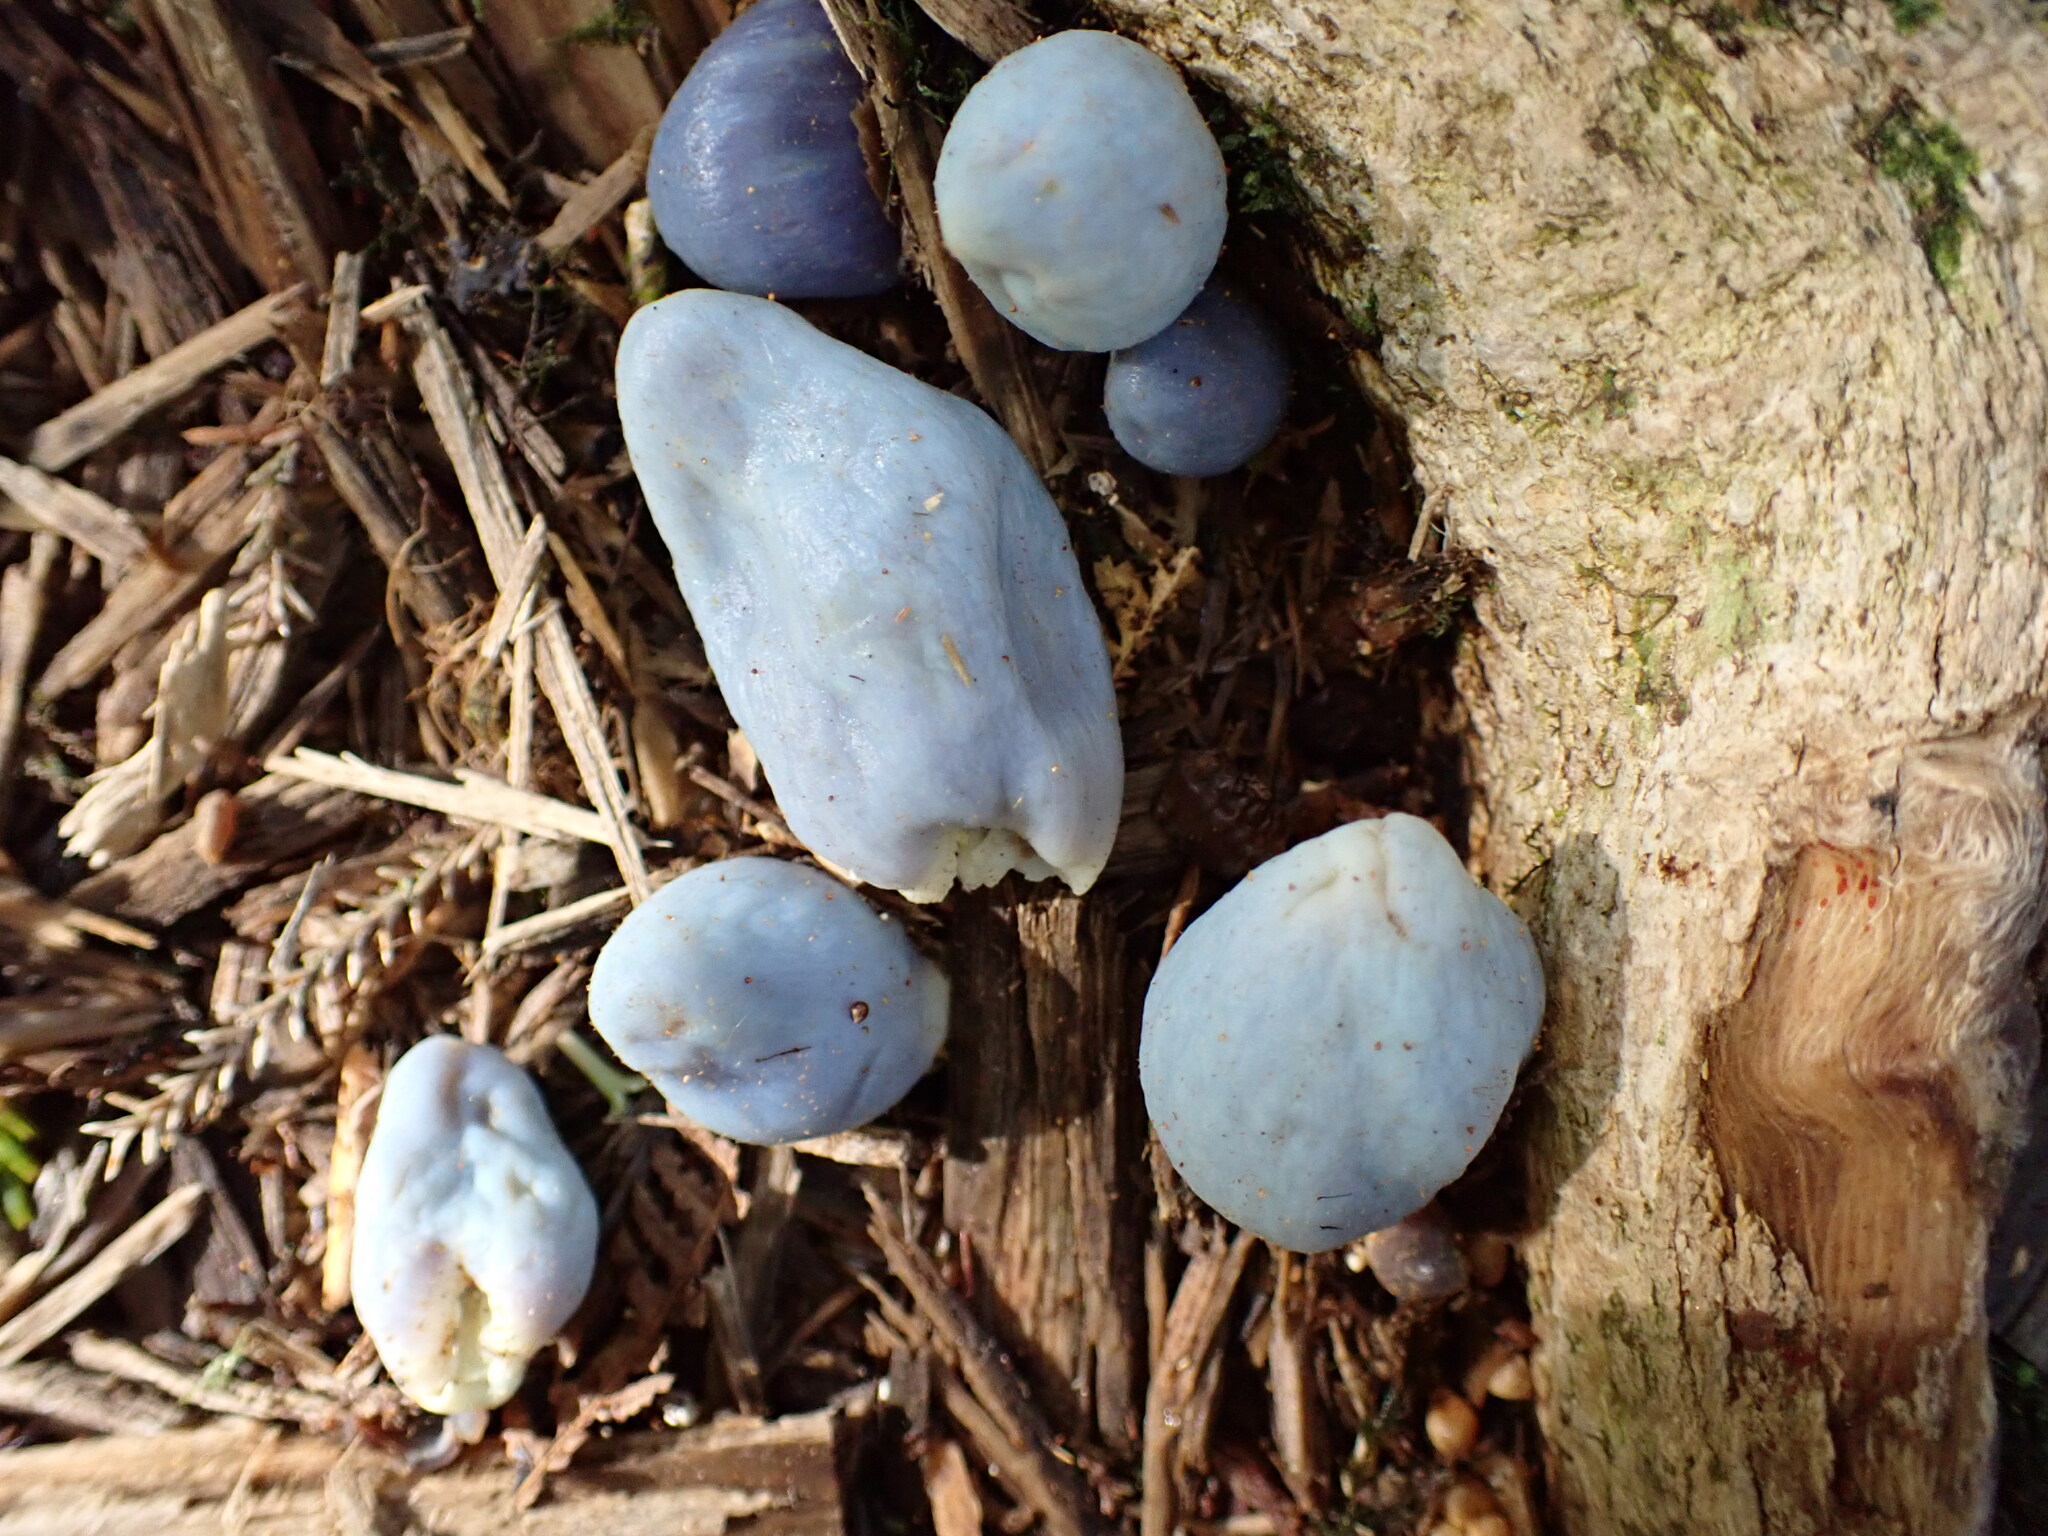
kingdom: Fungi
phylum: Basidiomycota
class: Agaricomycetes
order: Agaricales
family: Agaricaceae
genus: Clavogaster
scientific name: Clavogaster virescens
